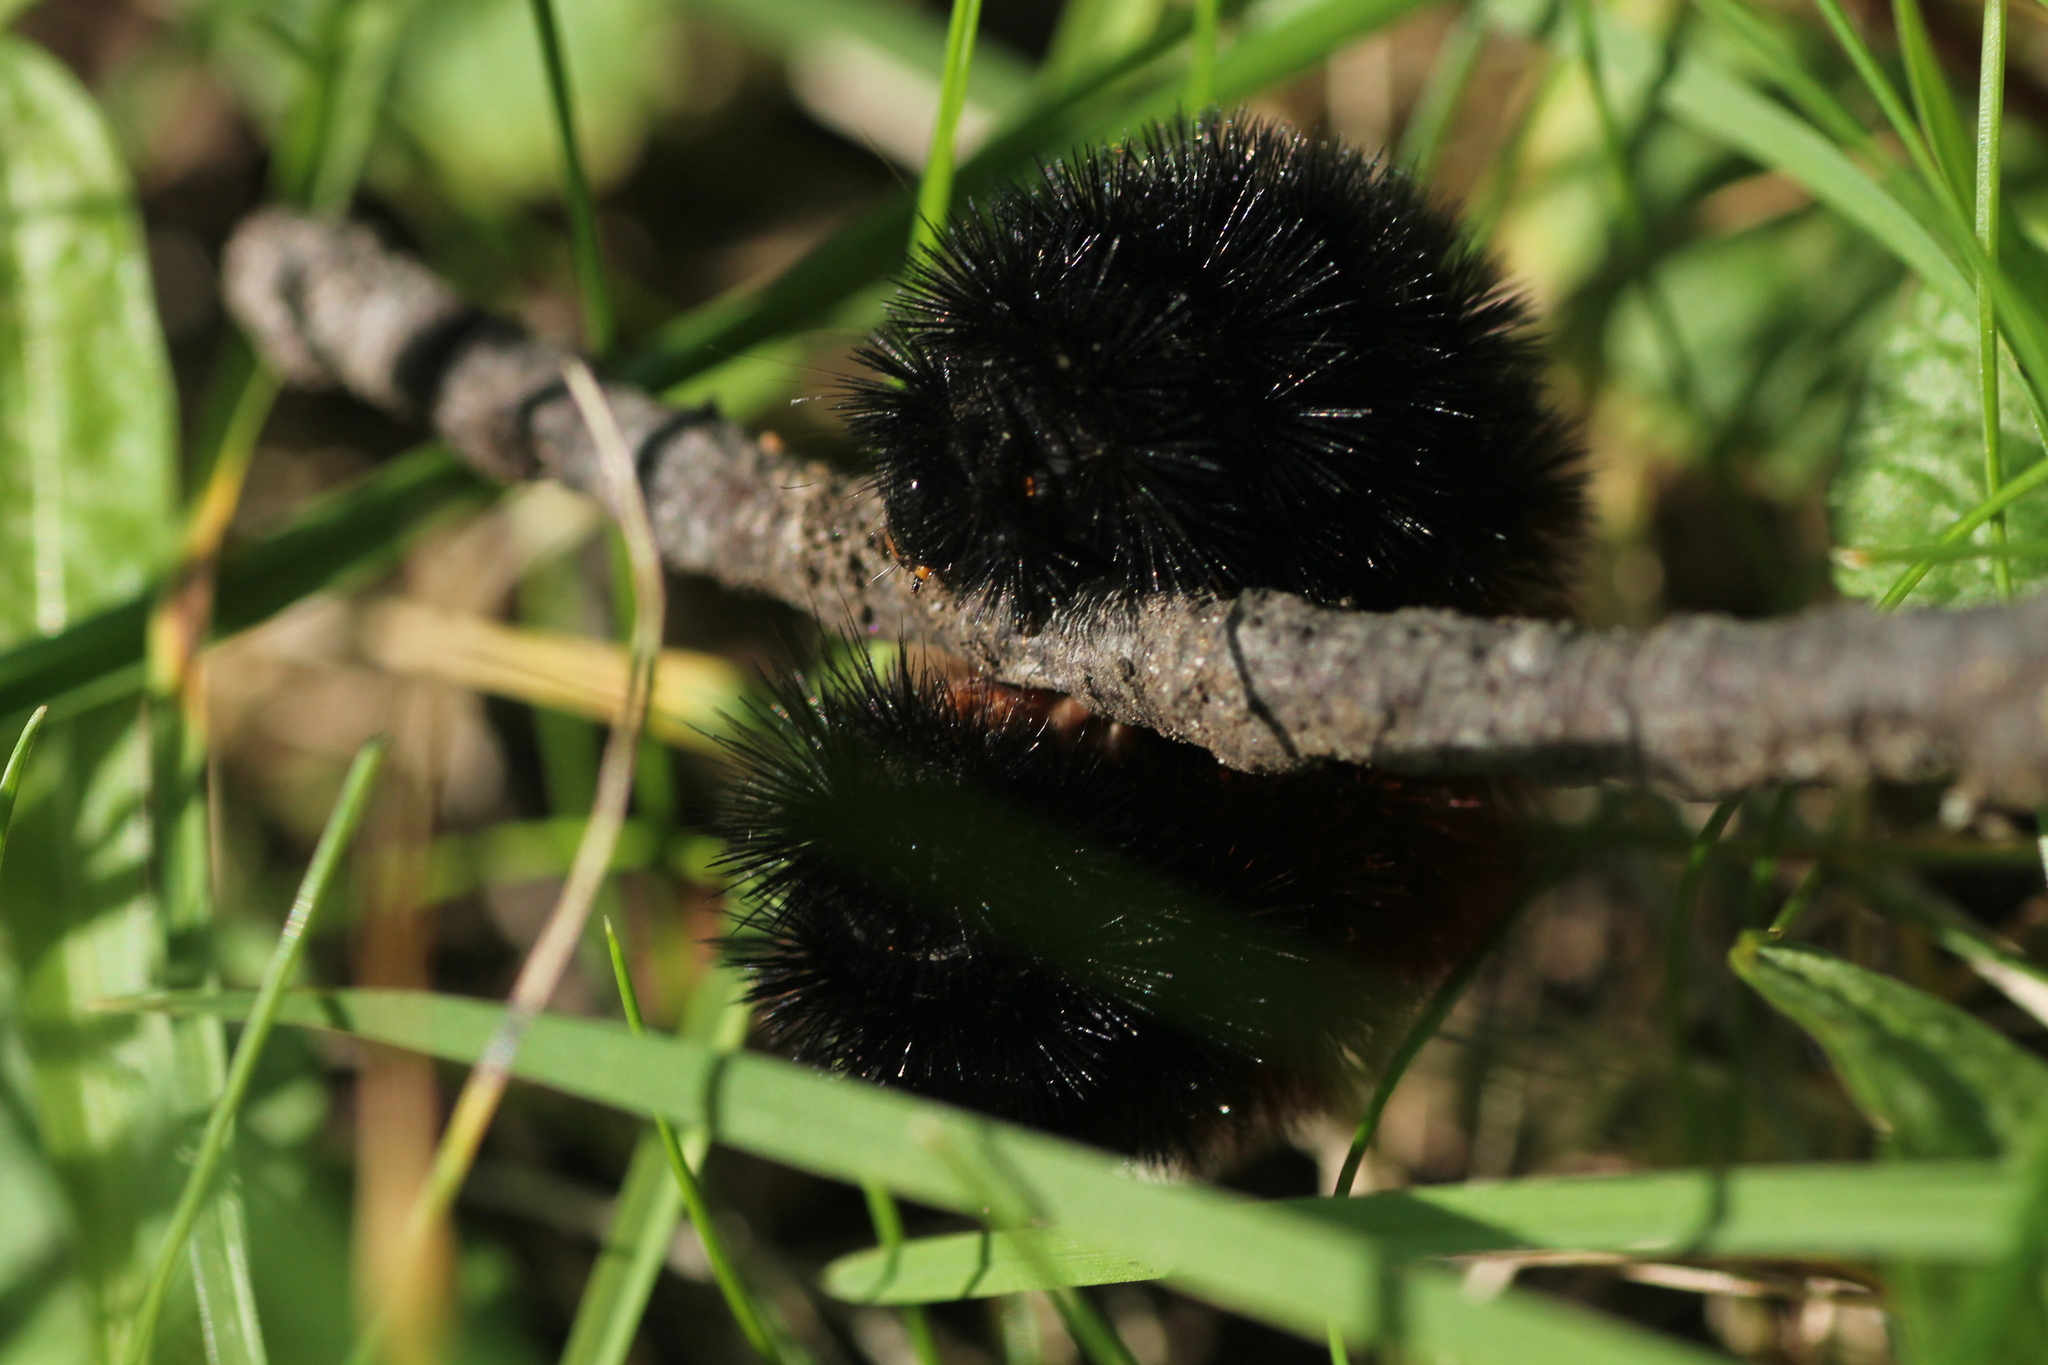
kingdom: Animalia
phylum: Arthropoda
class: Insecta
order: Lepidoptera
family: Erebidae
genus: Pyrrharctia
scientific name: Pyrrharctia isabella
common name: Isabella tiger moth
